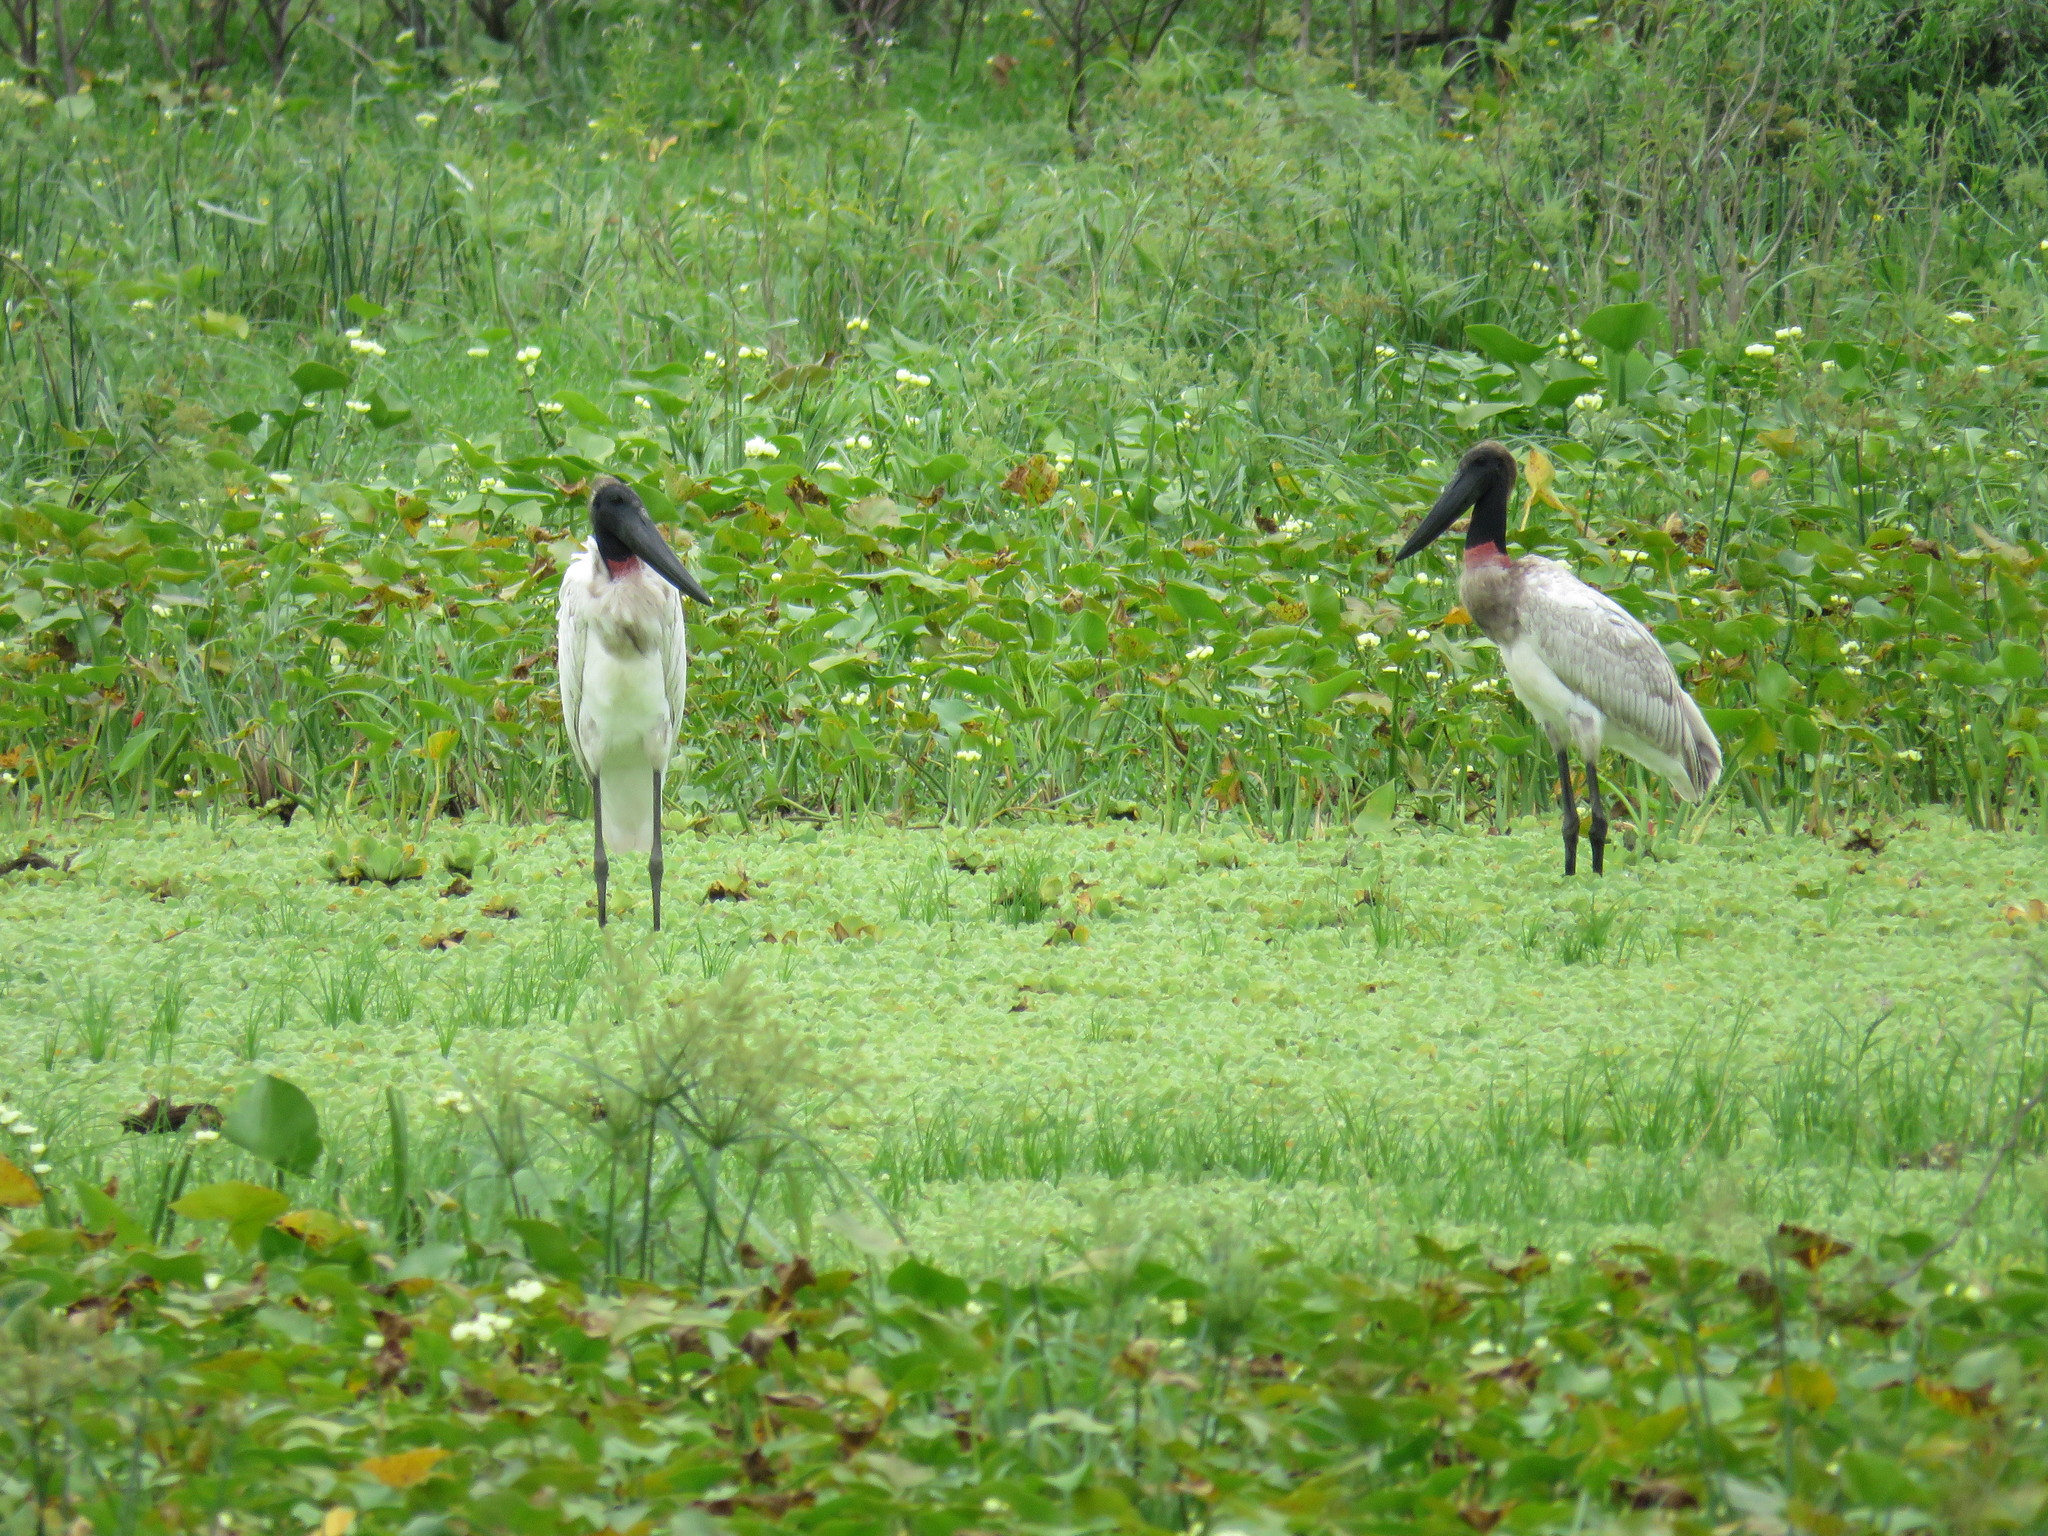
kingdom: Animalia
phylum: Chordata
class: Aves
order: Ciconiiformes
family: Ciconiidae
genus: Jabiru
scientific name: Jabiru mycteria
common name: Jabiru
